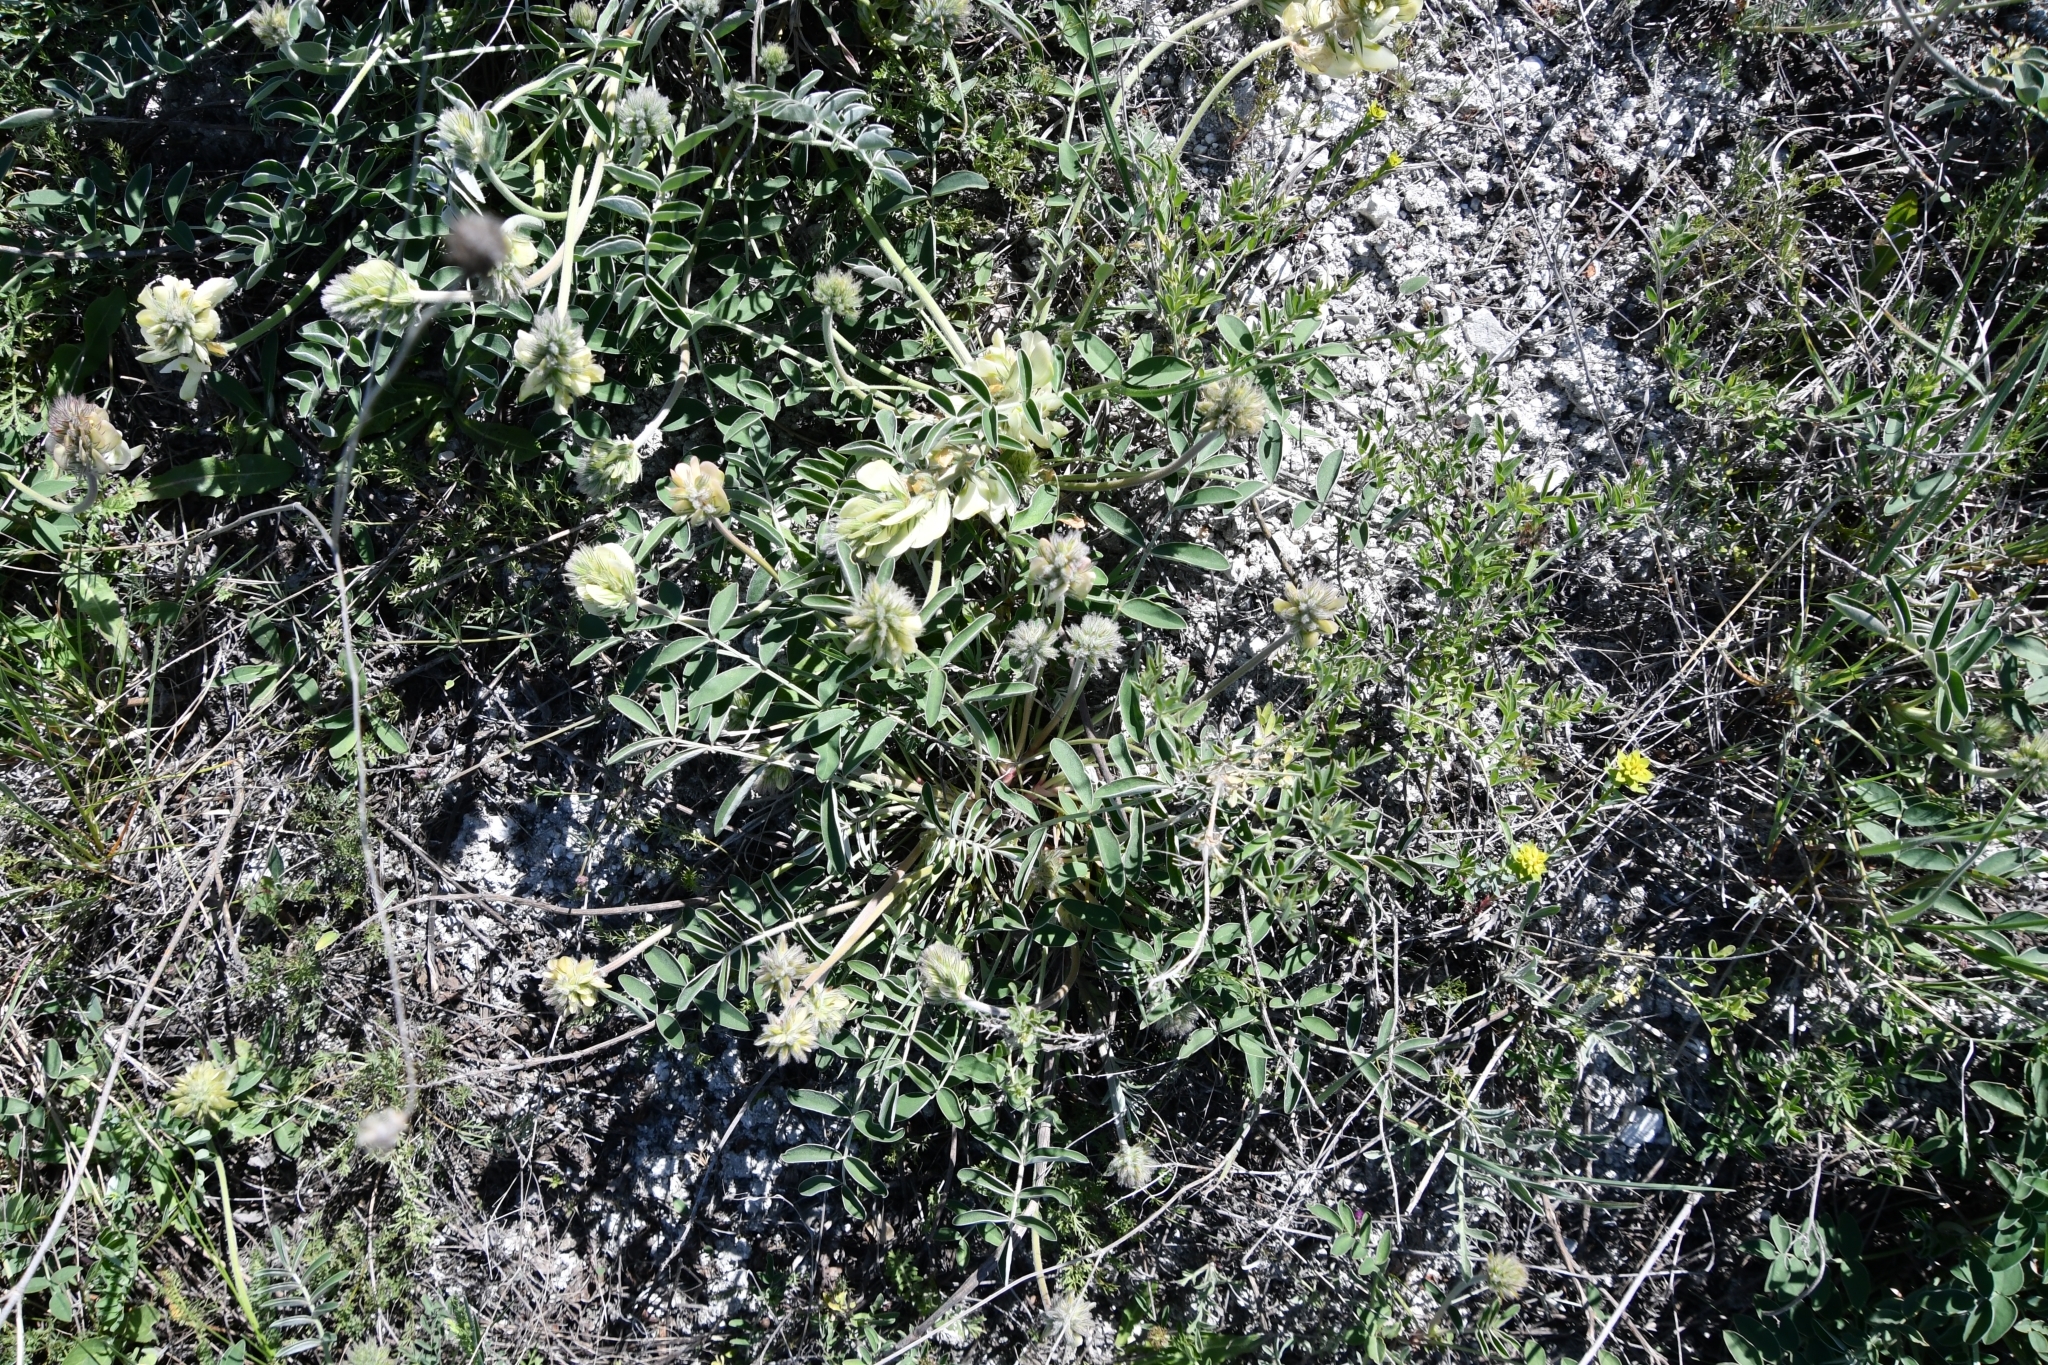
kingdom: Plantae
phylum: Tracheophyta
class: Magnoliopsida
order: Fabales
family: Fabaceae
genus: Hedysarum
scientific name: Hedysarum grandiflorum
